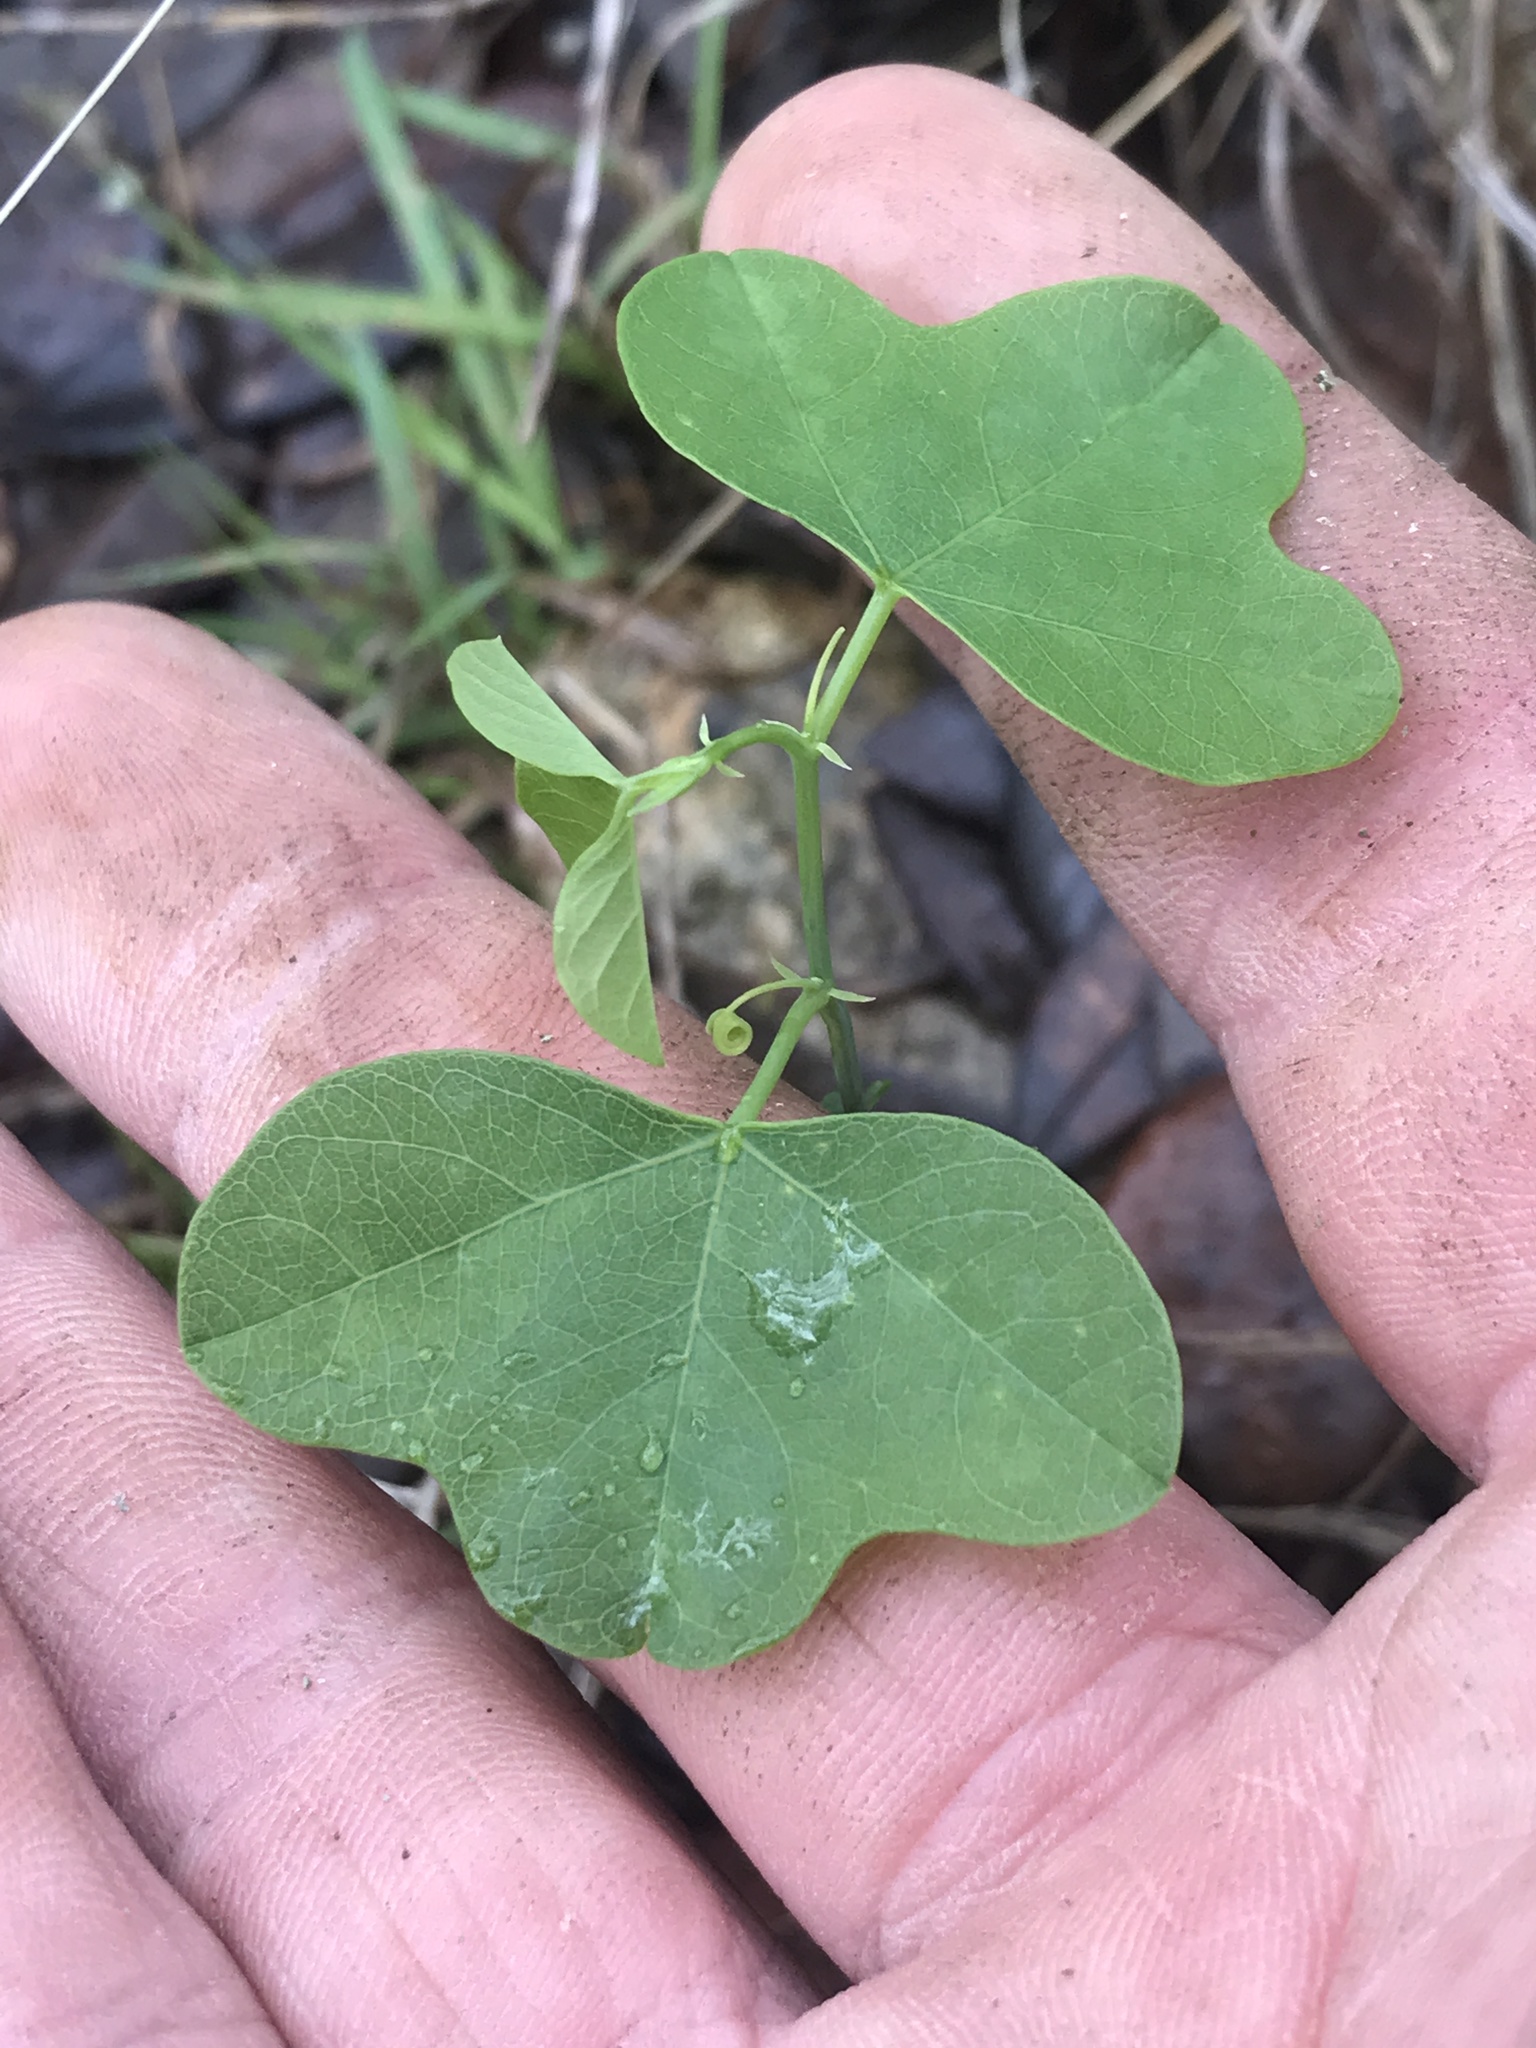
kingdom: Plantae
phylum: Tracheophyta
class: Magnoliopsida
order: Malpighiales
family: Passifloraceae
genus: Passiflora
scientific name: Passiflora lutea
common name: Yellow passionflower
